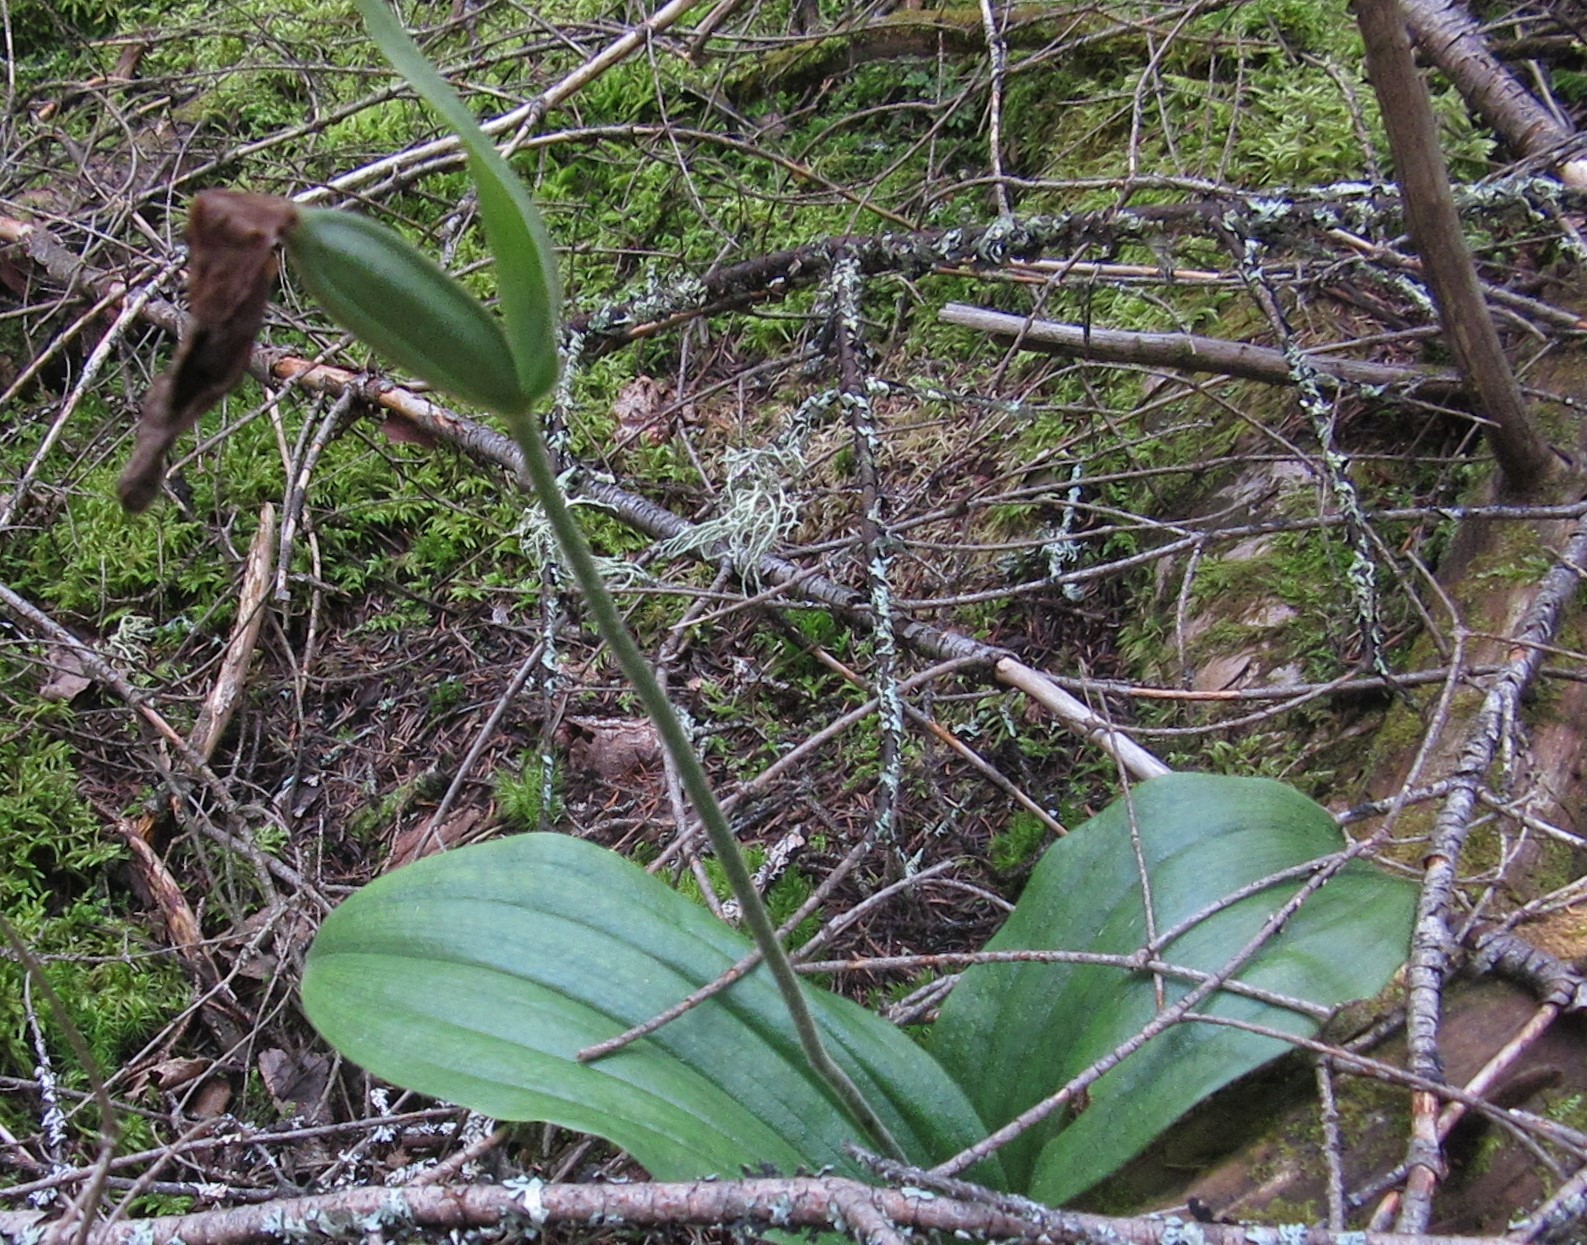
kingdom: Plantae
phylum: Tracheophyta
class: Liliopsida
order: Asparagales
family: Orchidaceae
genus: Cypripedium
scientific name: Cypripedium acaule
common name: Pink lady's-slipper
